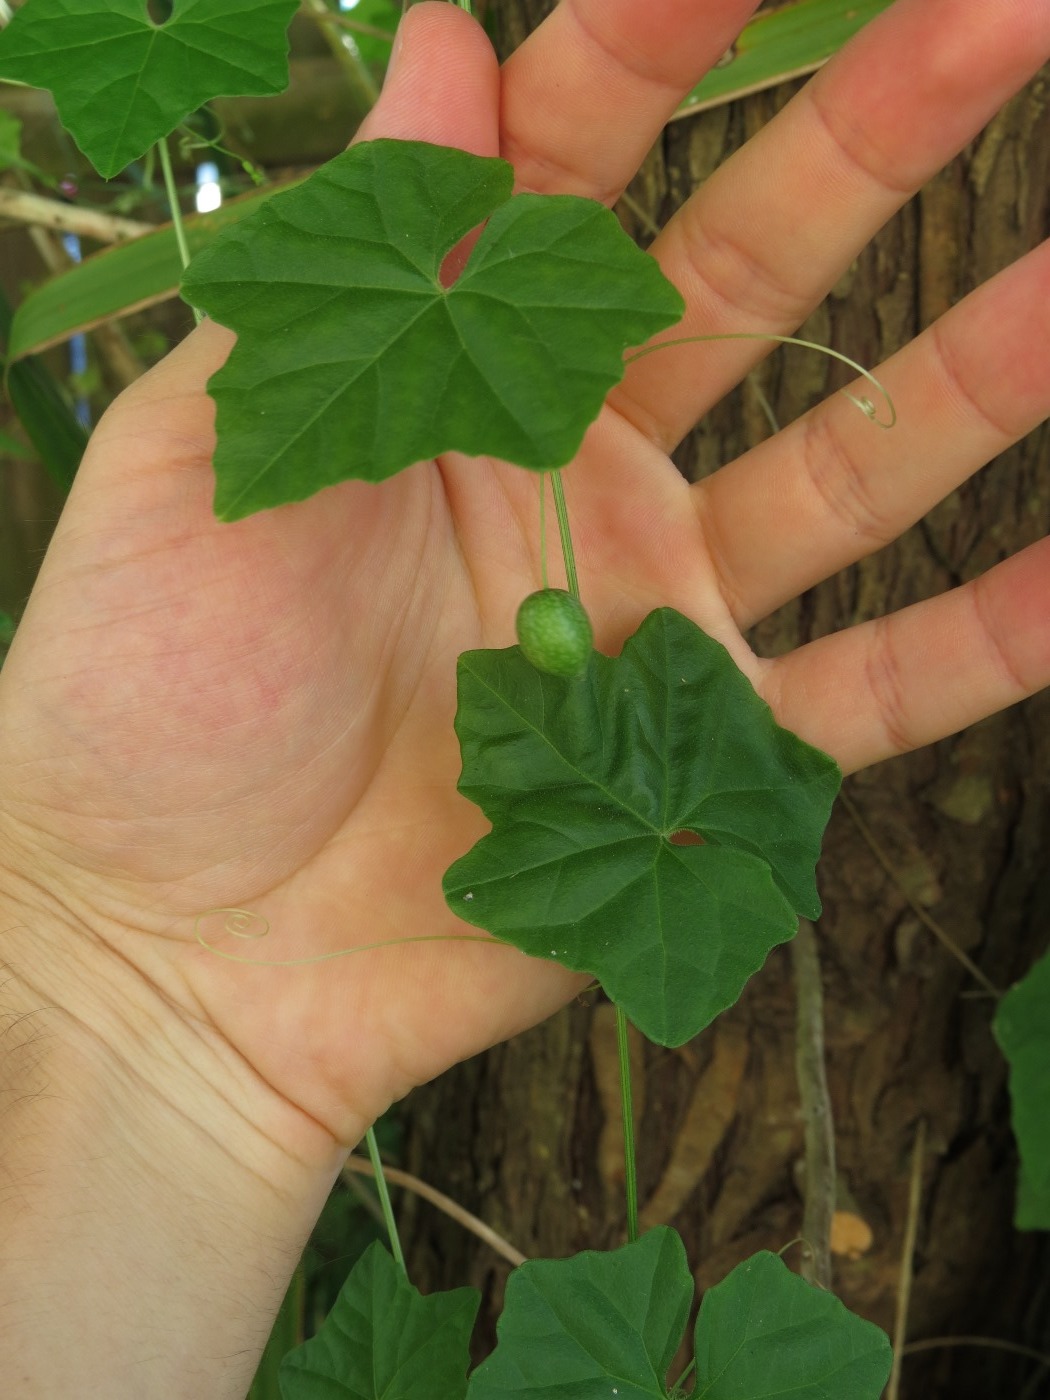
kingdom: Plantae
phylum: Tracheophyta
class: Magnoliopsida
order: Cucurbitales
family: Cucurbitaceae
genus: Melothria
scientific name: Melothria pendula
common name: Creeping-cucumber
